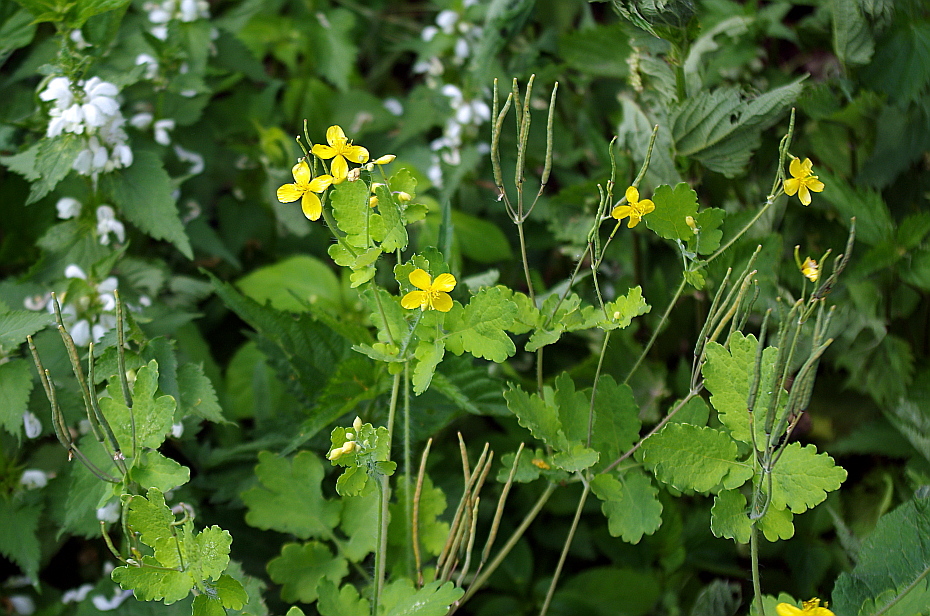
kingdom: Plantae
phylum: Tracheophyta
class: Magnoliopsida
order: Ranunculales
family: Papaveraceae
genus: Chelidonium
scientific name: Chelidonium majus
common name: Greater celandine
